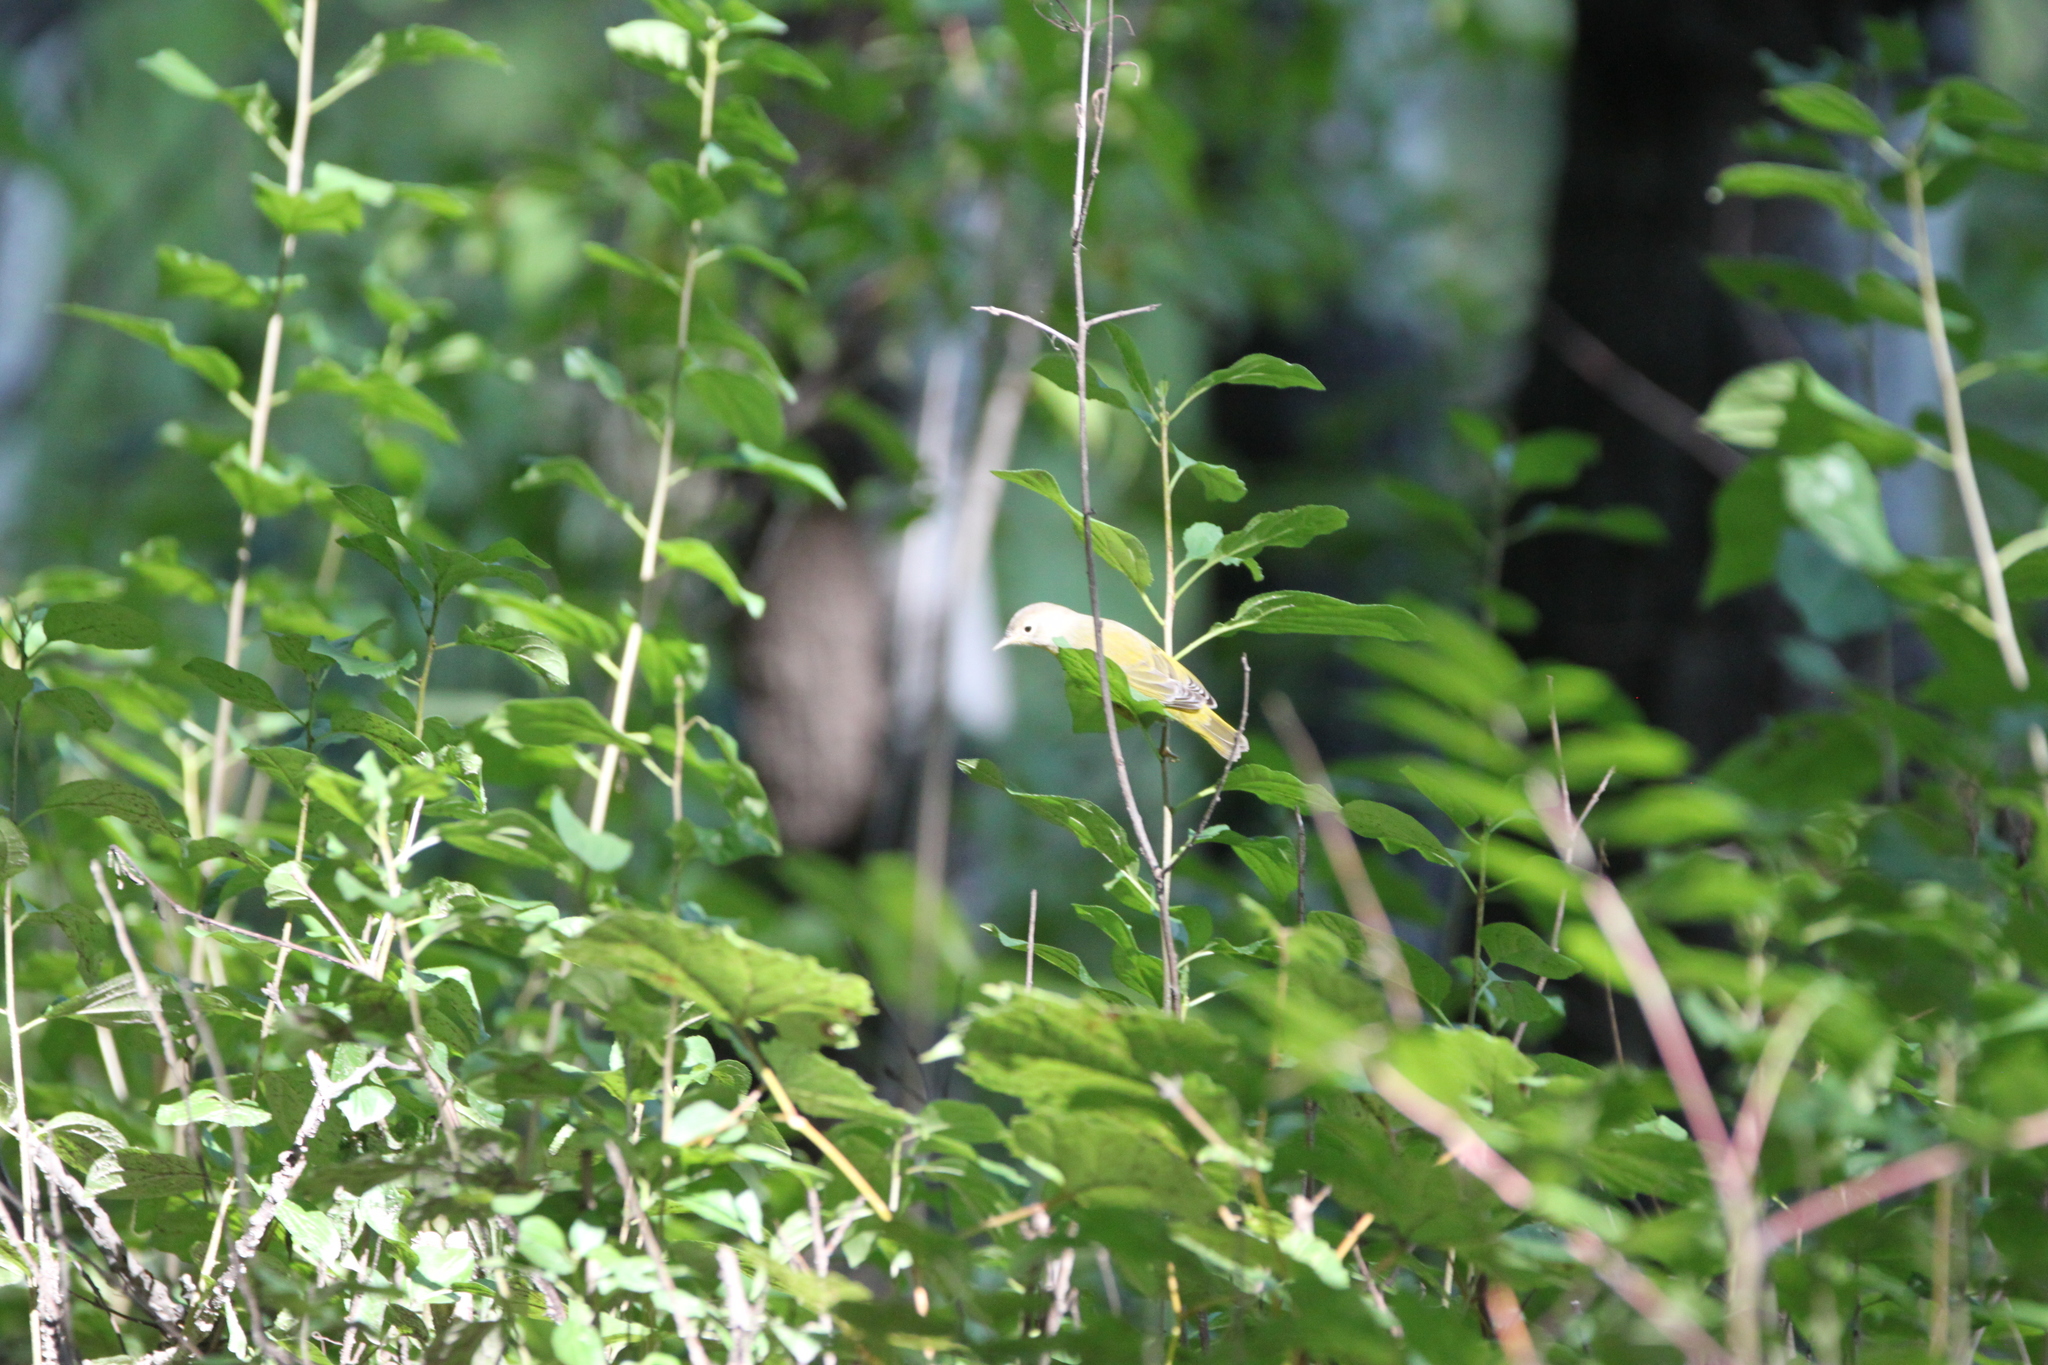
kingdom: Animalia
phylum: Chordata
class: Aves
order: Passeriformes
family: Parulidae
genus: Leiothlypis
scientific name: Leiothlypis ruficapilla
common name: Nashville warbler
